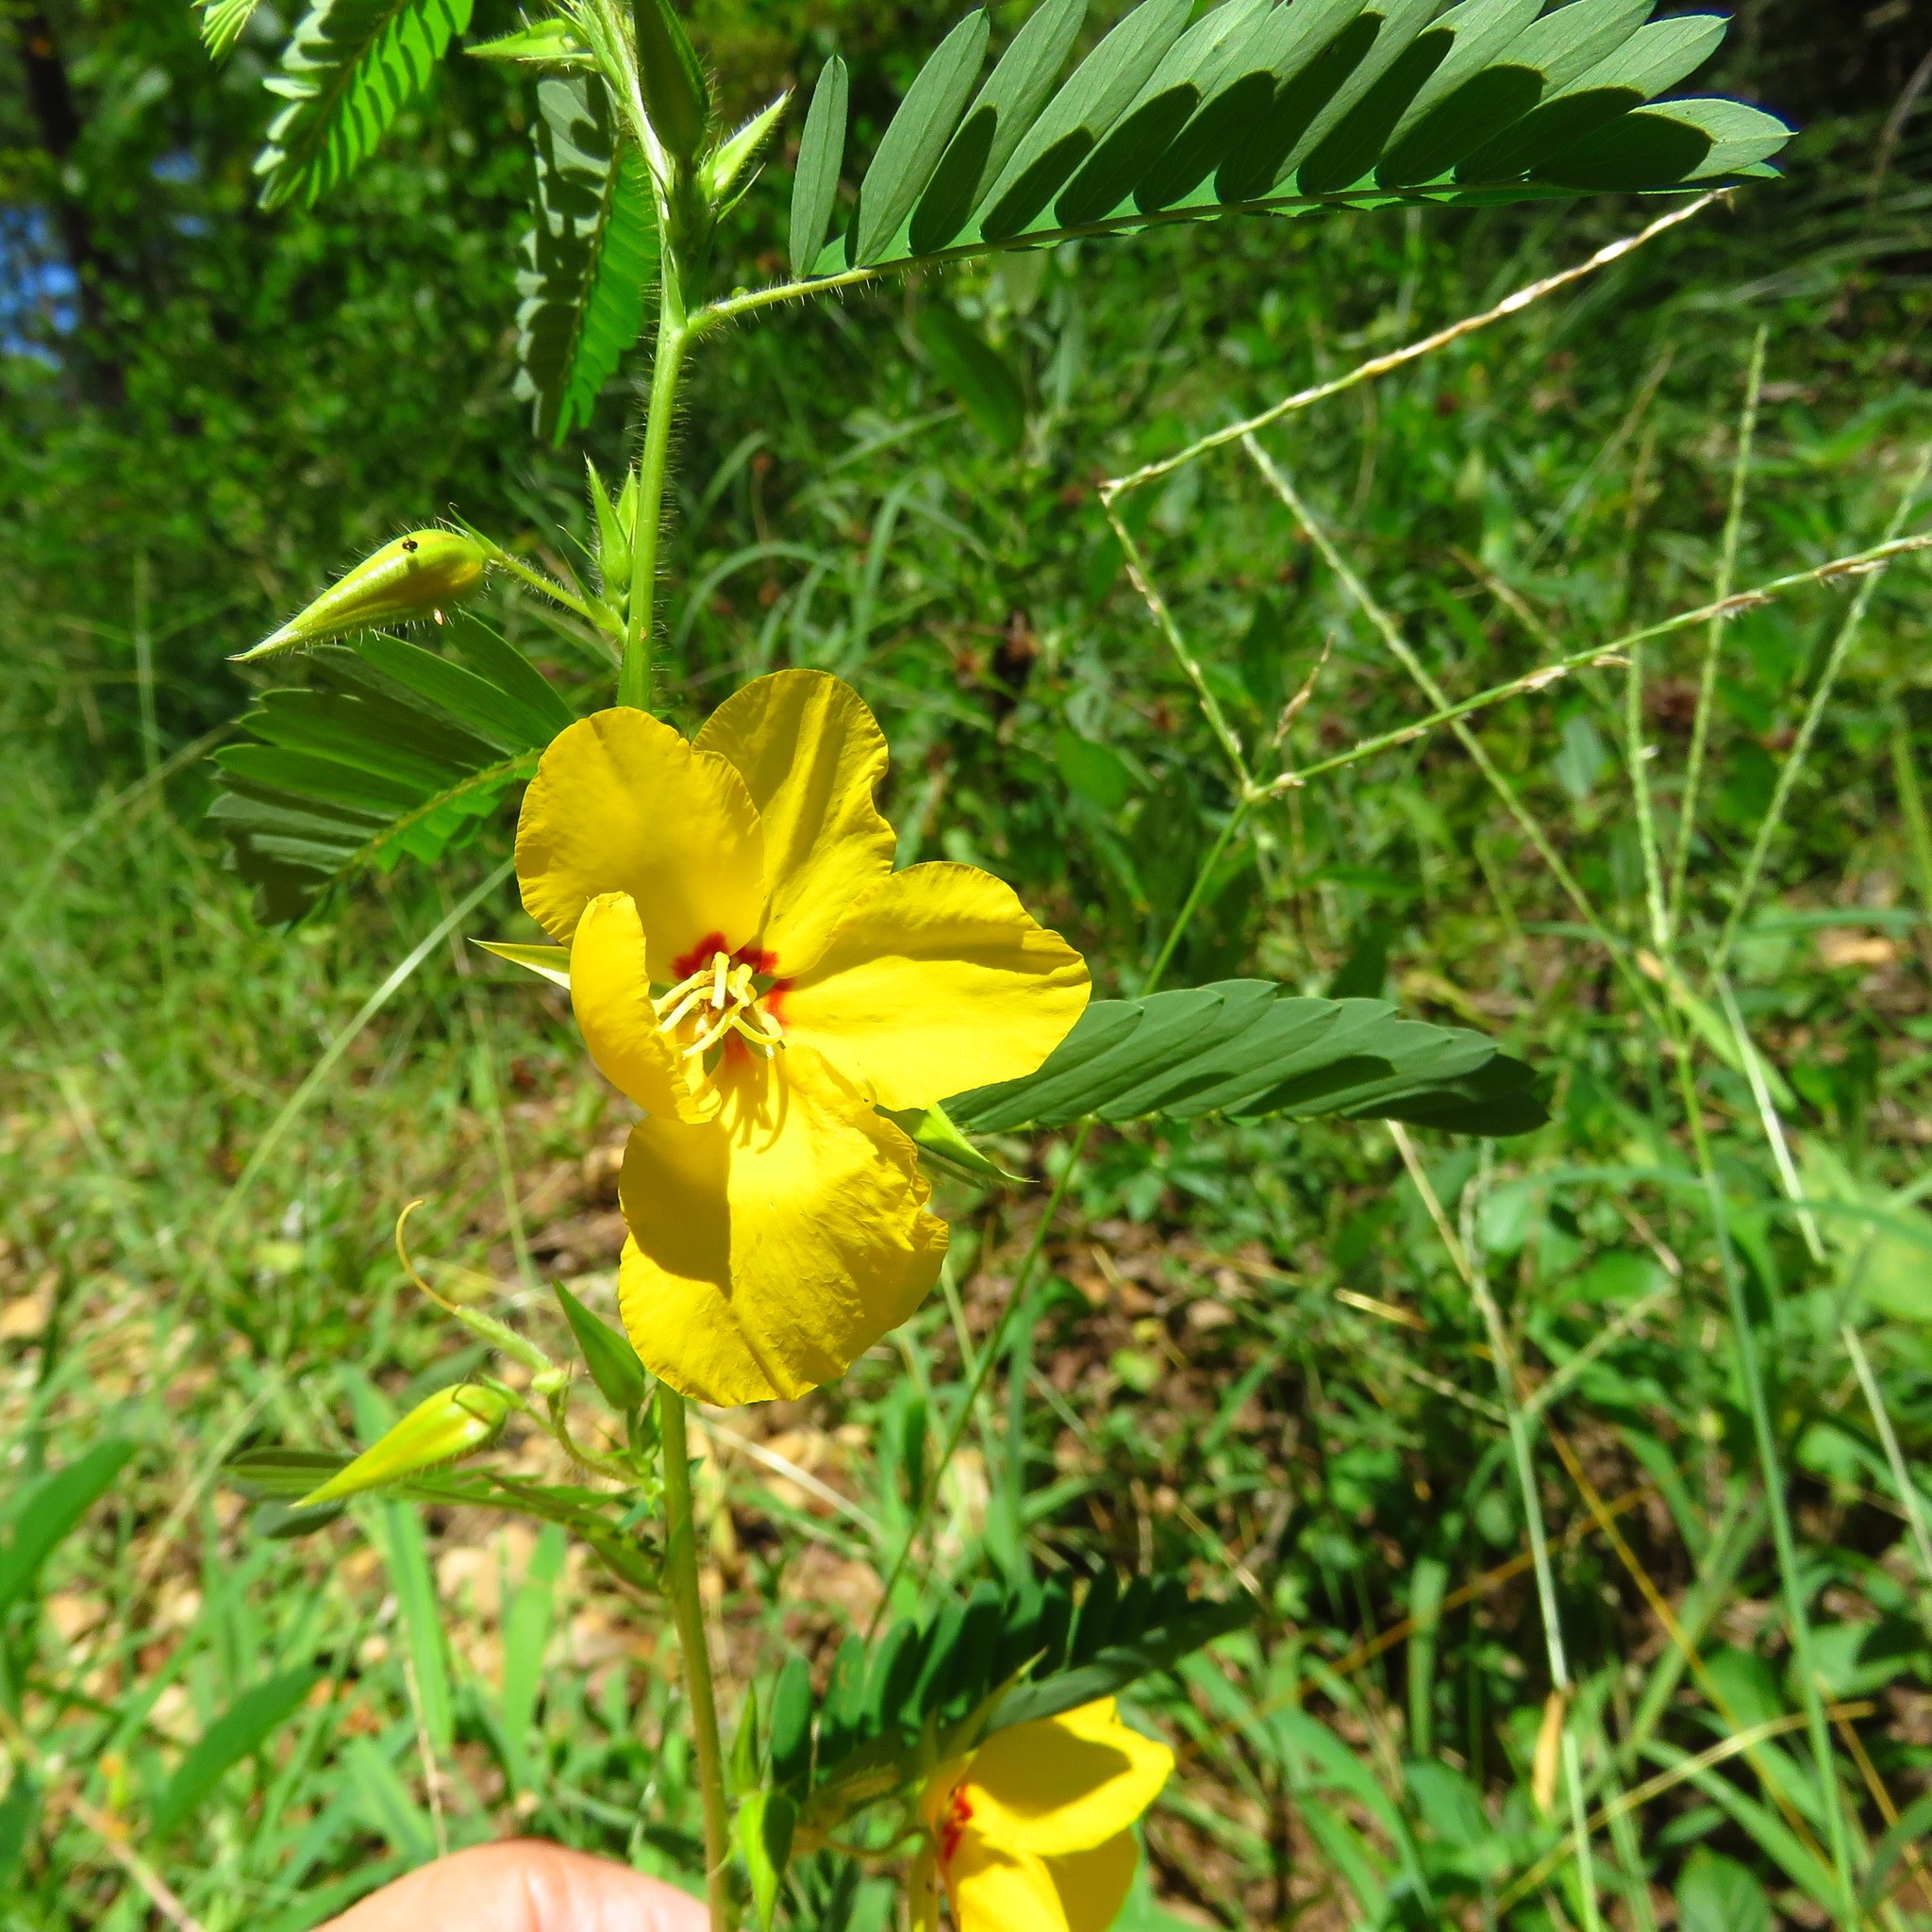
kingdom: Plantae
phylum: Tracheophyta
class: Magnoliopsida
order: Fabales
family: Fabaceae
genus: Chamaecrista
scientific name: Chamaecrista fasciculata
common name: Golden cassia
